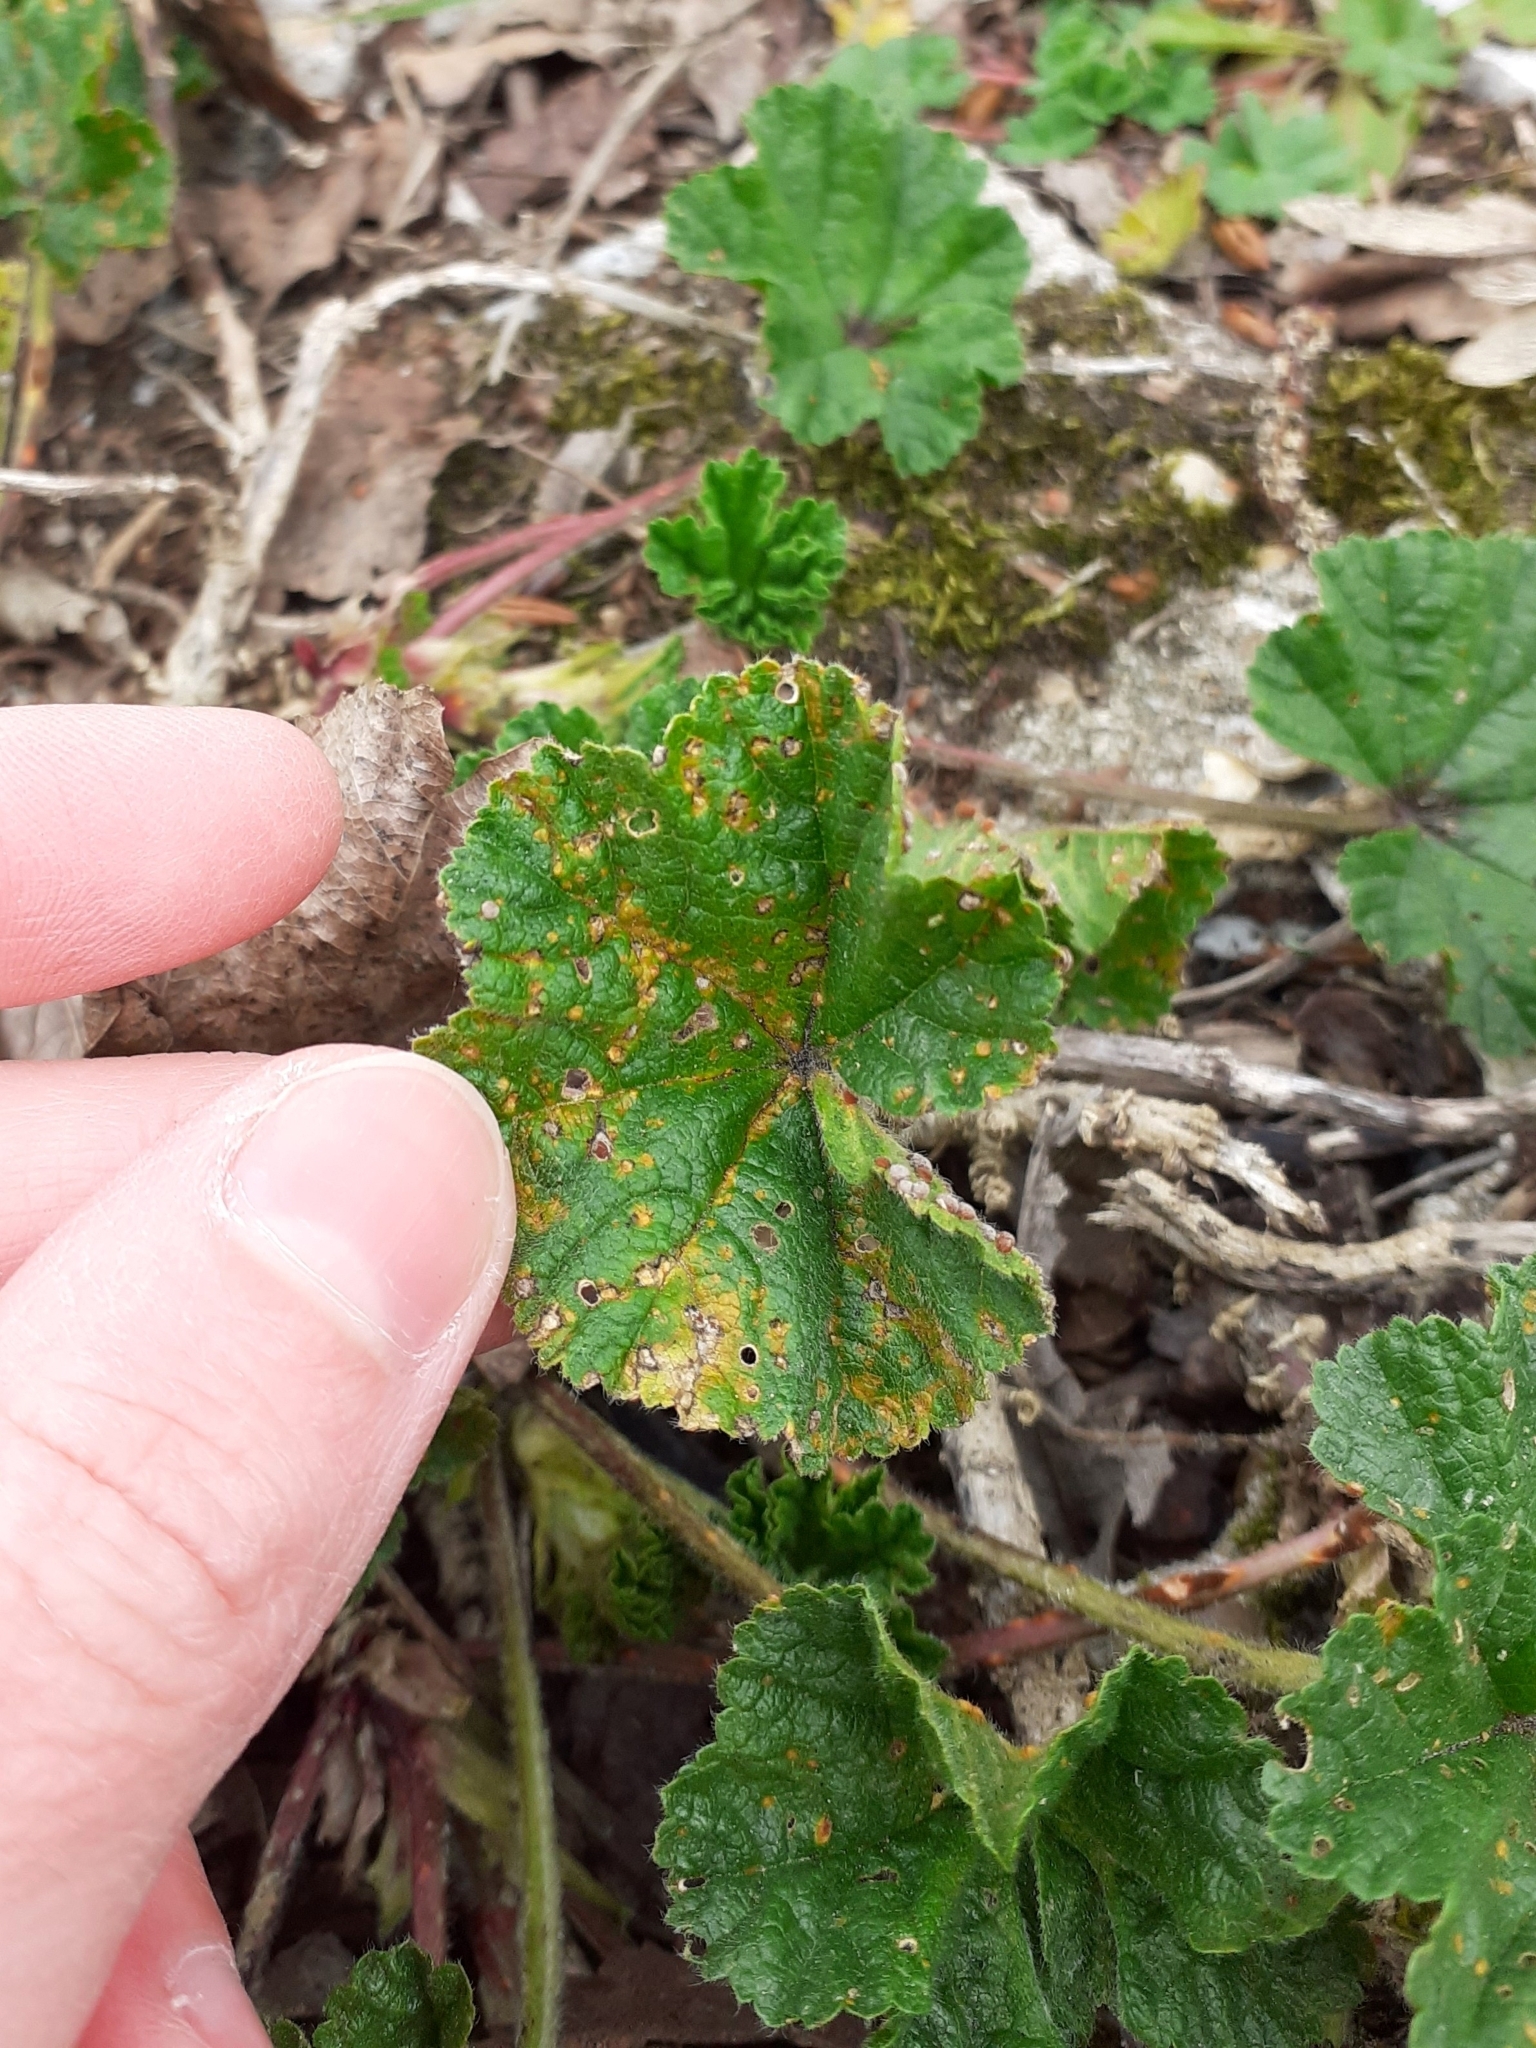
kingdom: Fungi
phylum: Basidiomycota
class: Pucciniomycetes
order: Pucciniales
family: Pucciniaceae
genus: Puccinia
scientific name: Puccinia malvacearum
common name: Hollyhock rust
